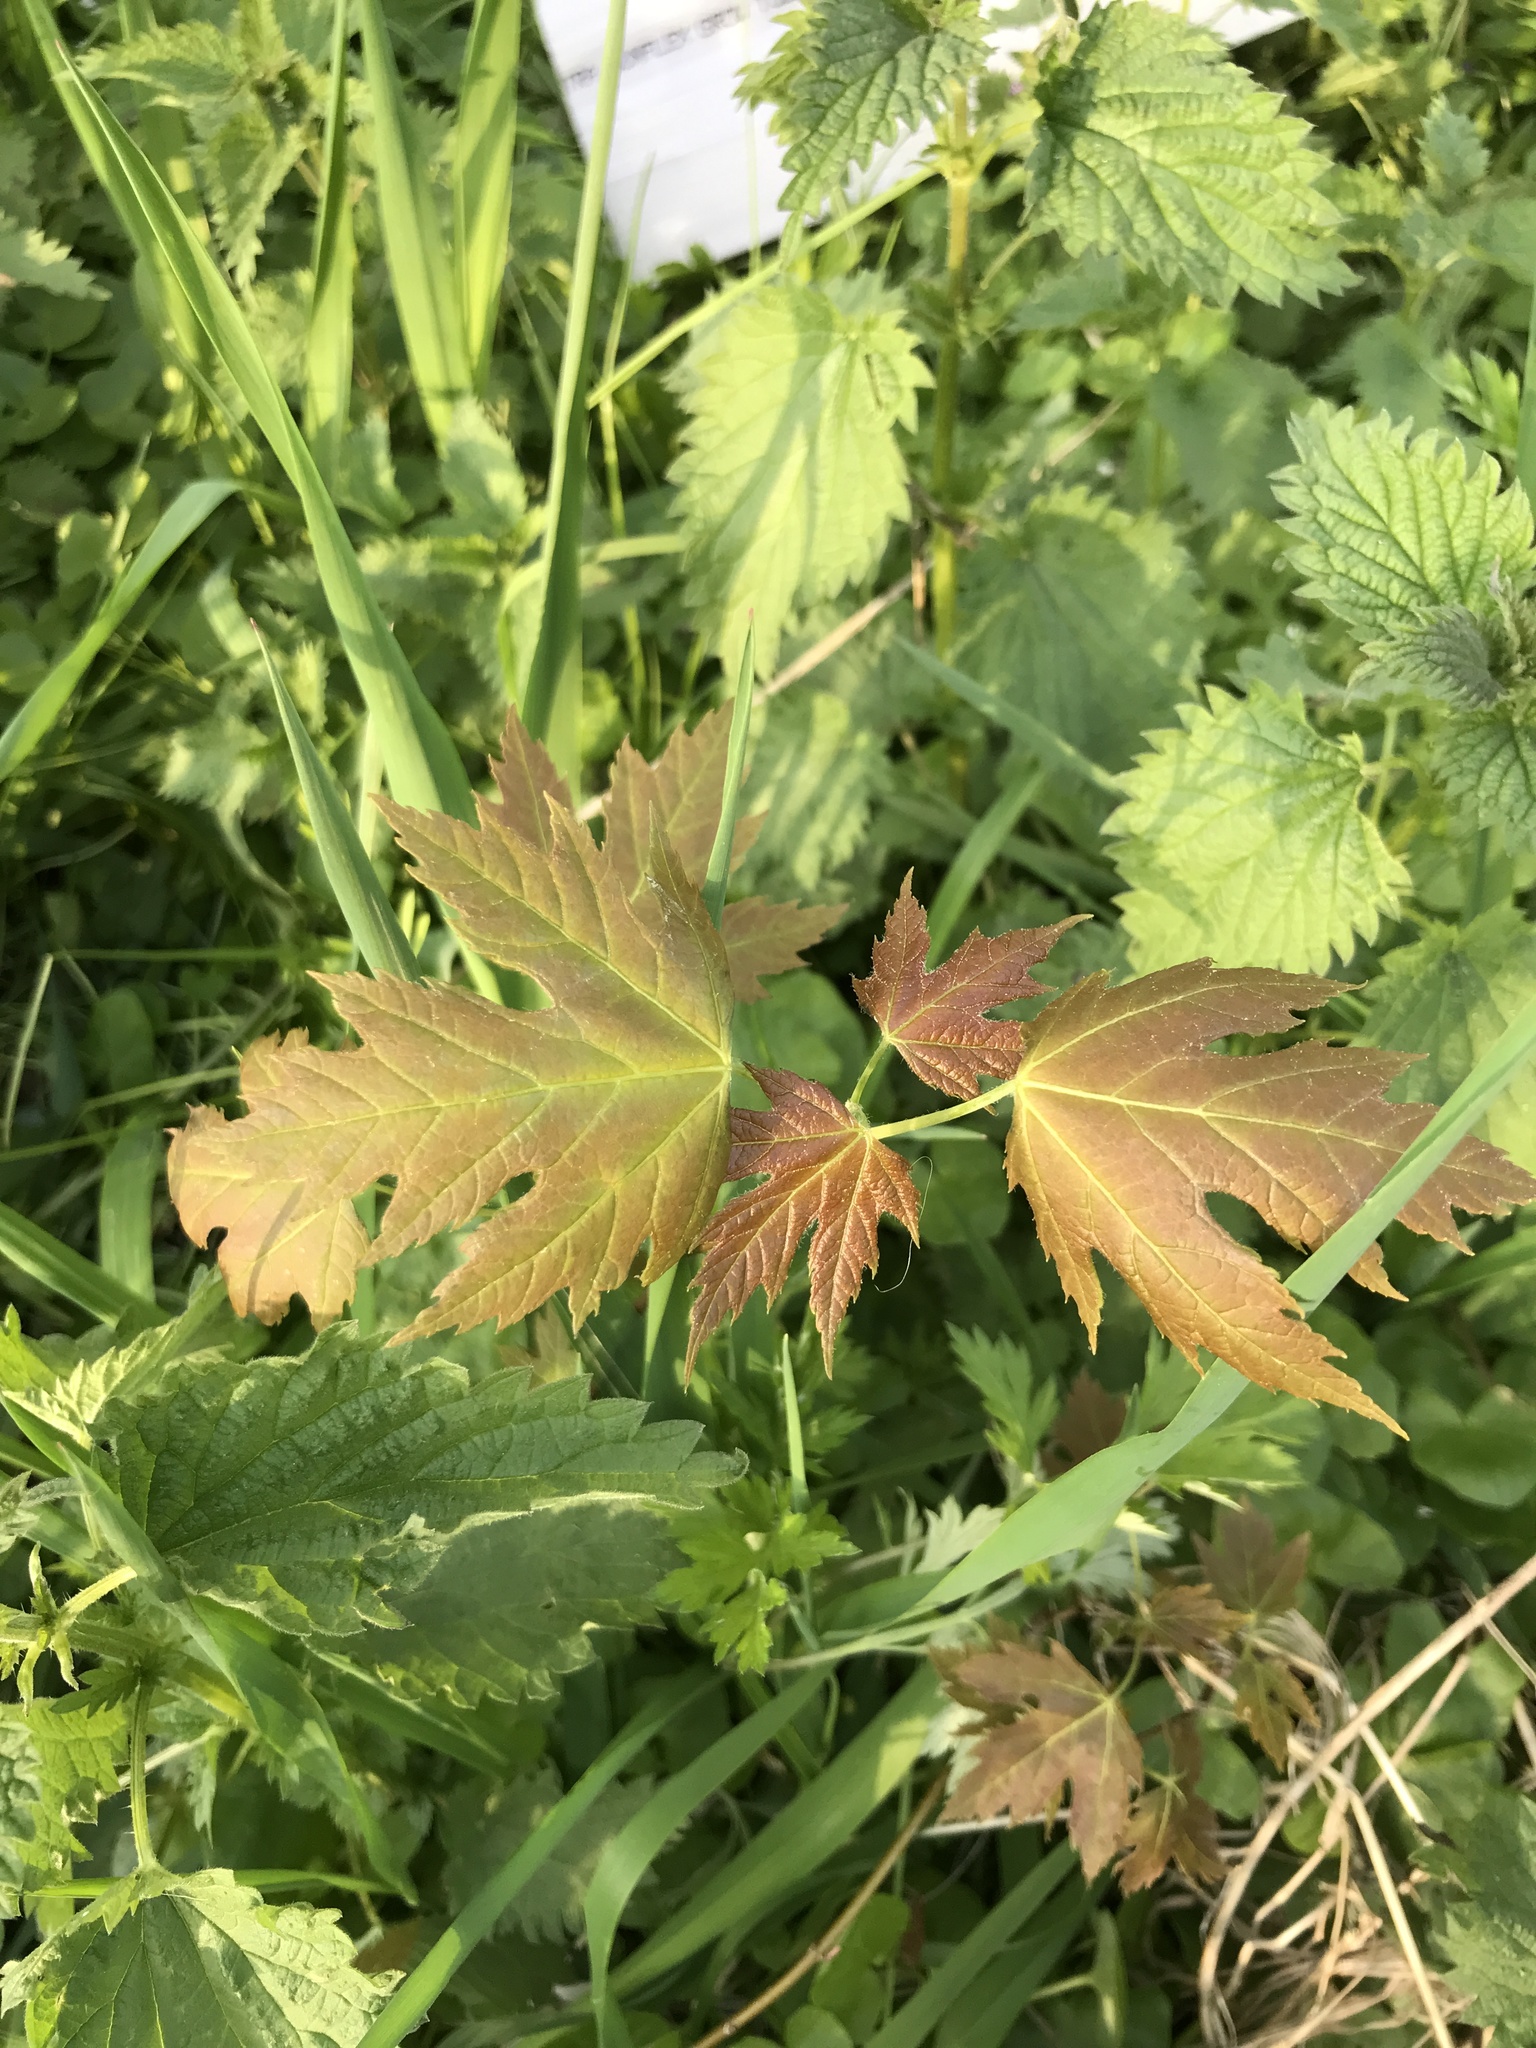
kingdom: Plantae
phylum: Tracheophyta
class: Magnoliopsida
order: Sapindales
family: Sapindaceae
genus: Acer
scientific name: Acer saccharinum
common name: Silver maple
